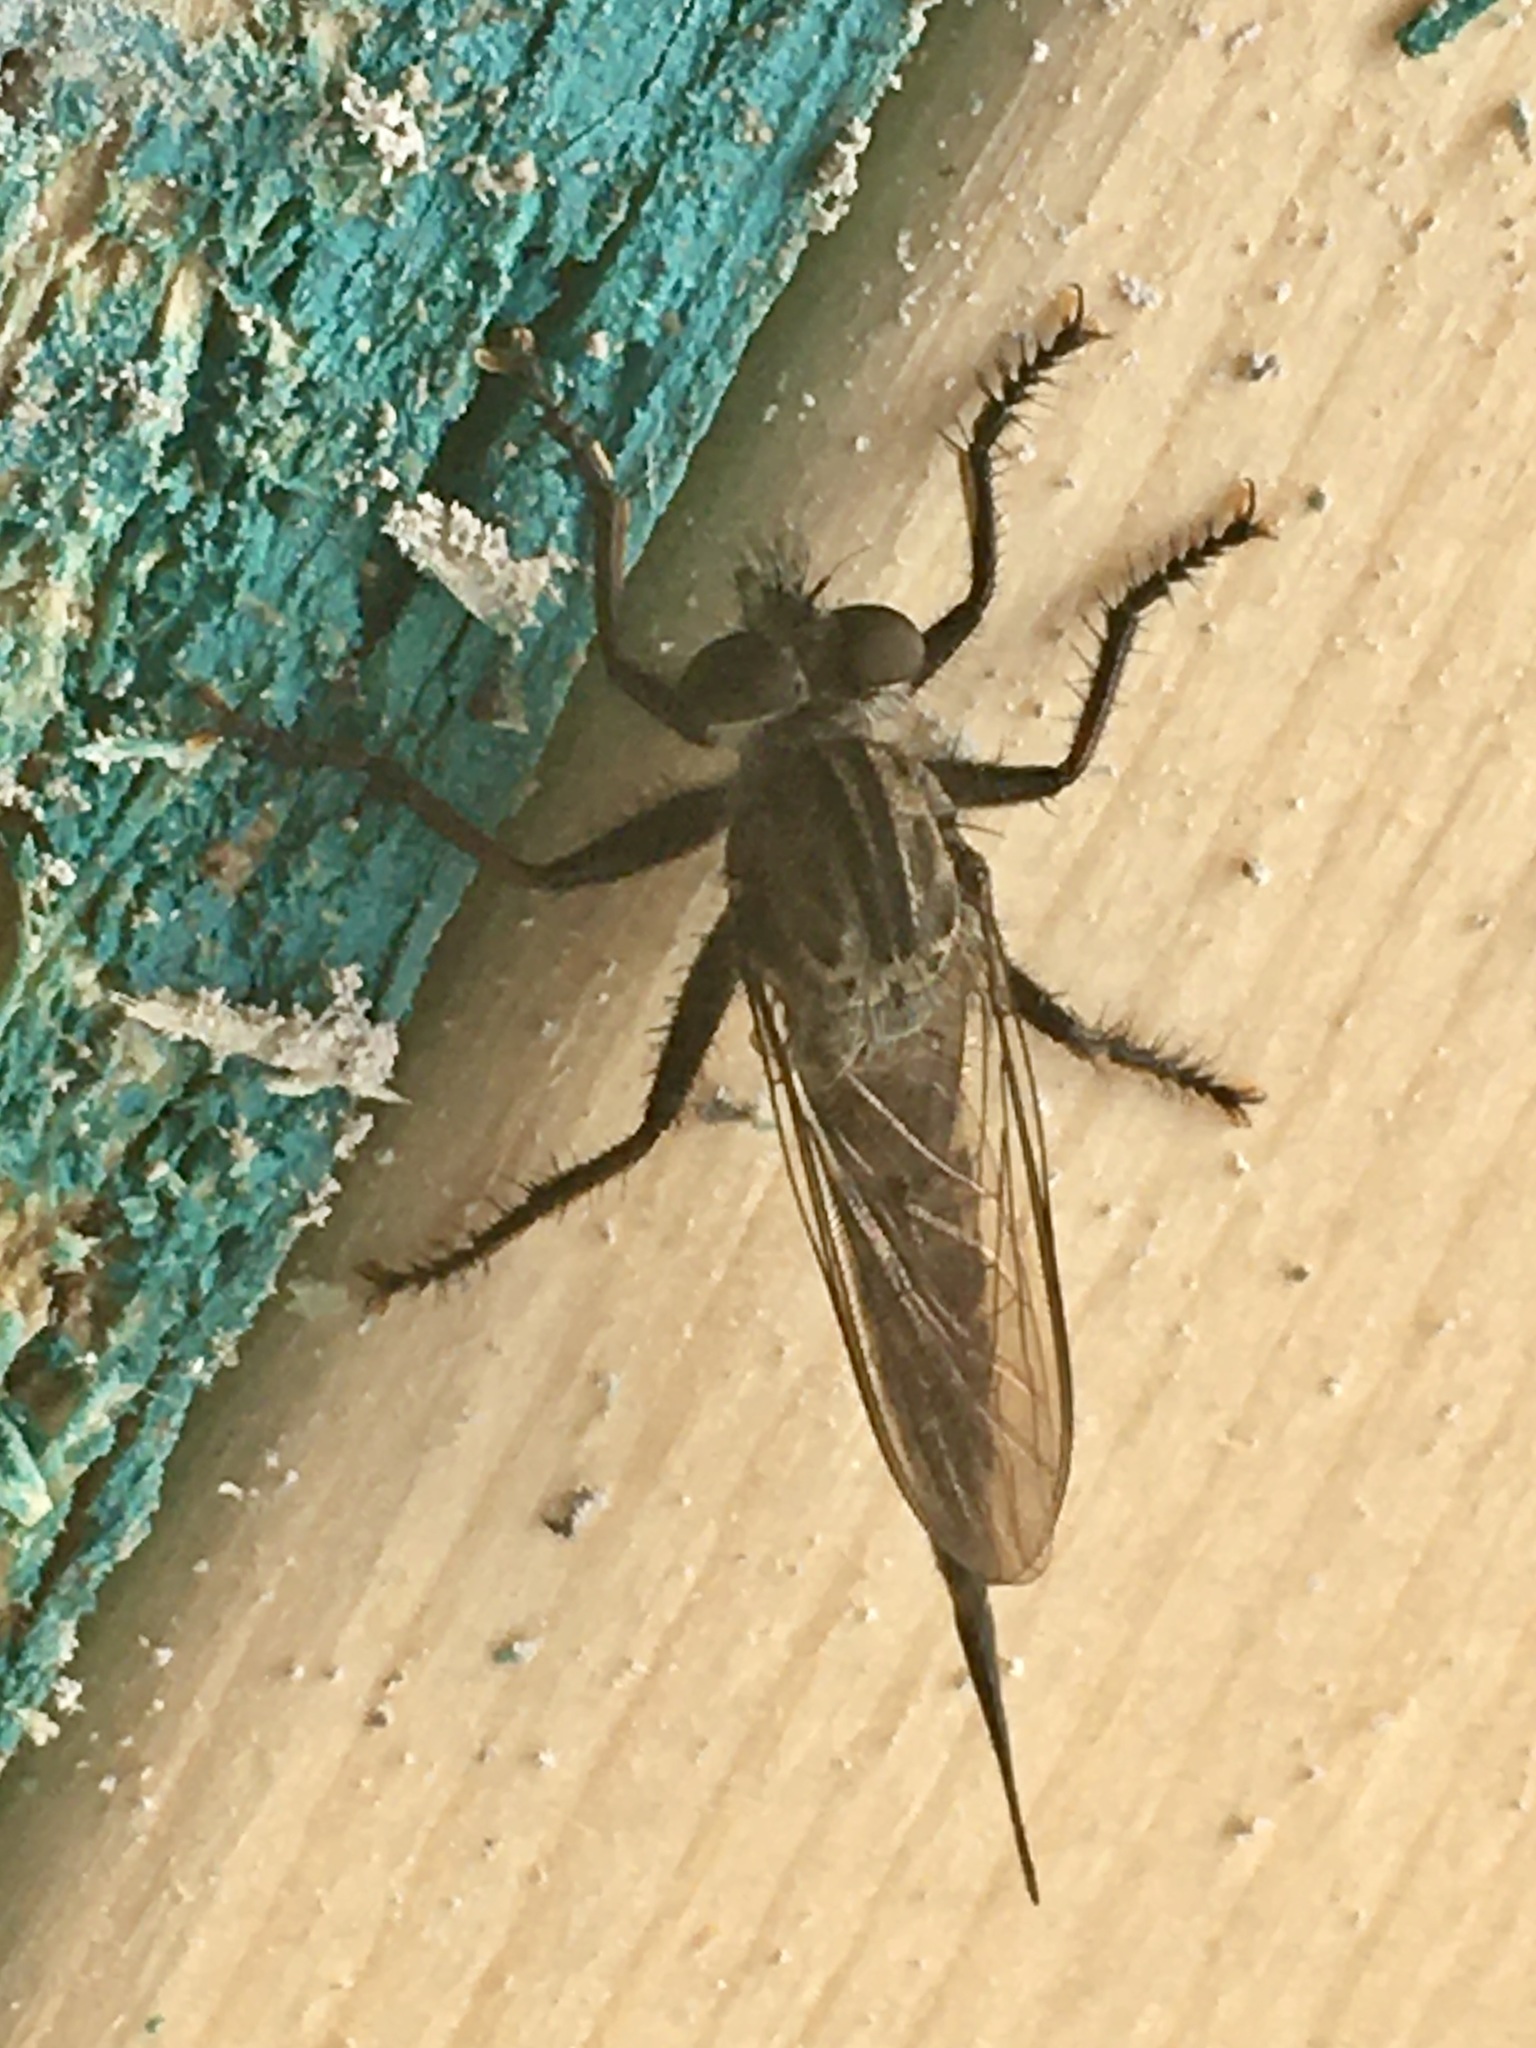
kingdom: Animalia
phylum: Arthropoda
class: Insecta
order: Diptera
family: Asilidae
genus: Efferia
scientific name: Efferia aestuans
